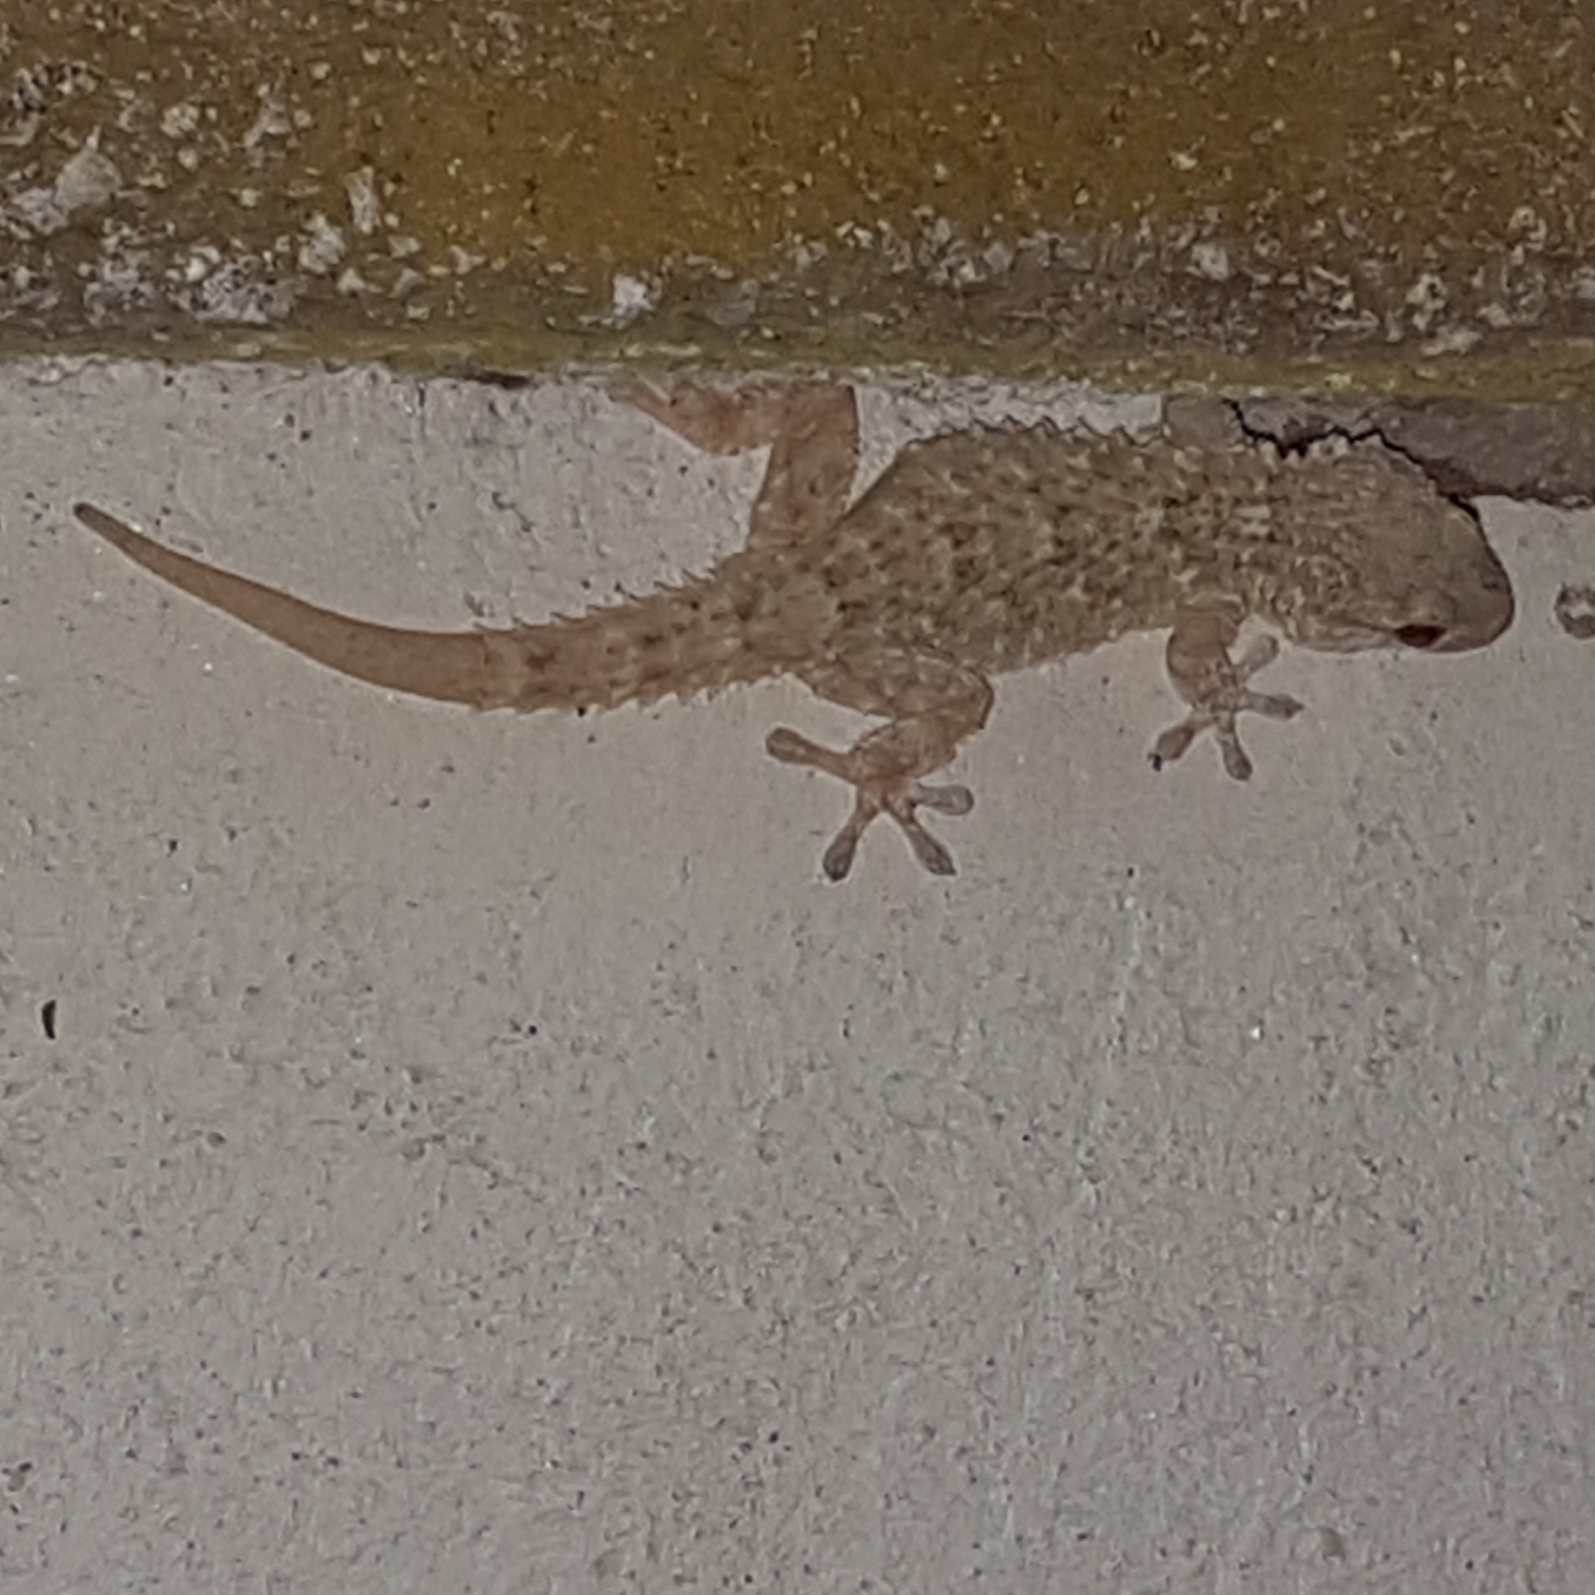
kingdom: Animalia
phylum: Chordata
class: Squamata
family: Phyllodactylidae
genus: Tarentola
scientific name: Tarentola mauritanica
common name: Moorish gecko
